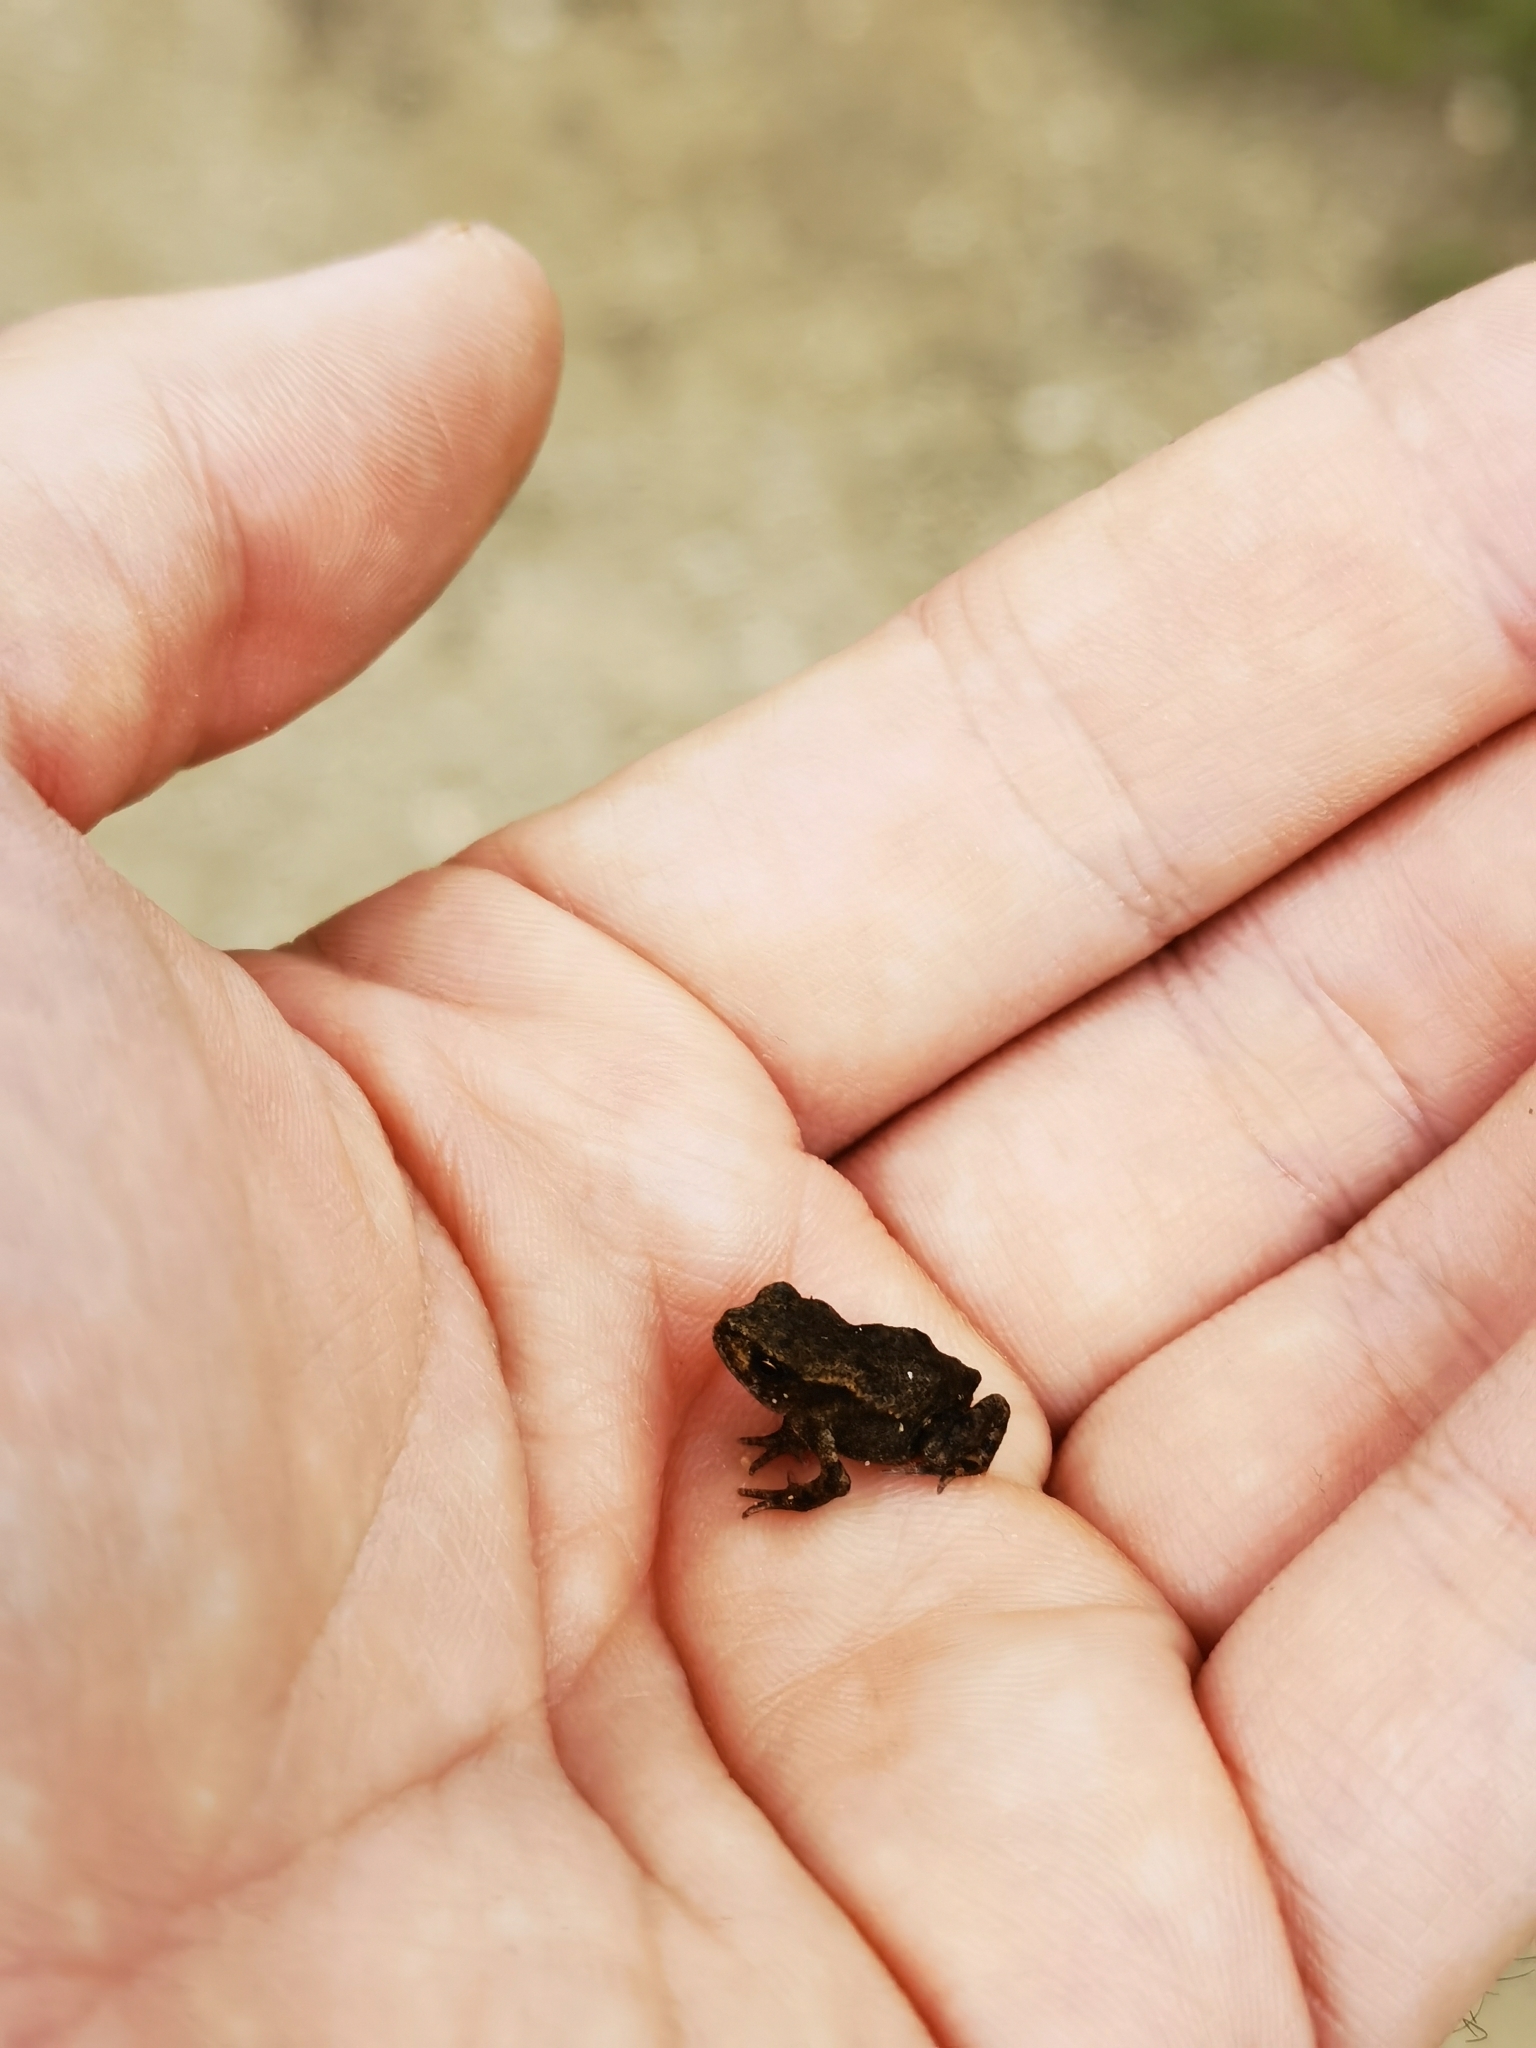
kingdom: Animalia
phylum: Chordata
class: Amphibia
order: Anura
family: Bufonidae
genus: Bufo
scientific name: Bufo bufo
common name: Common toad
